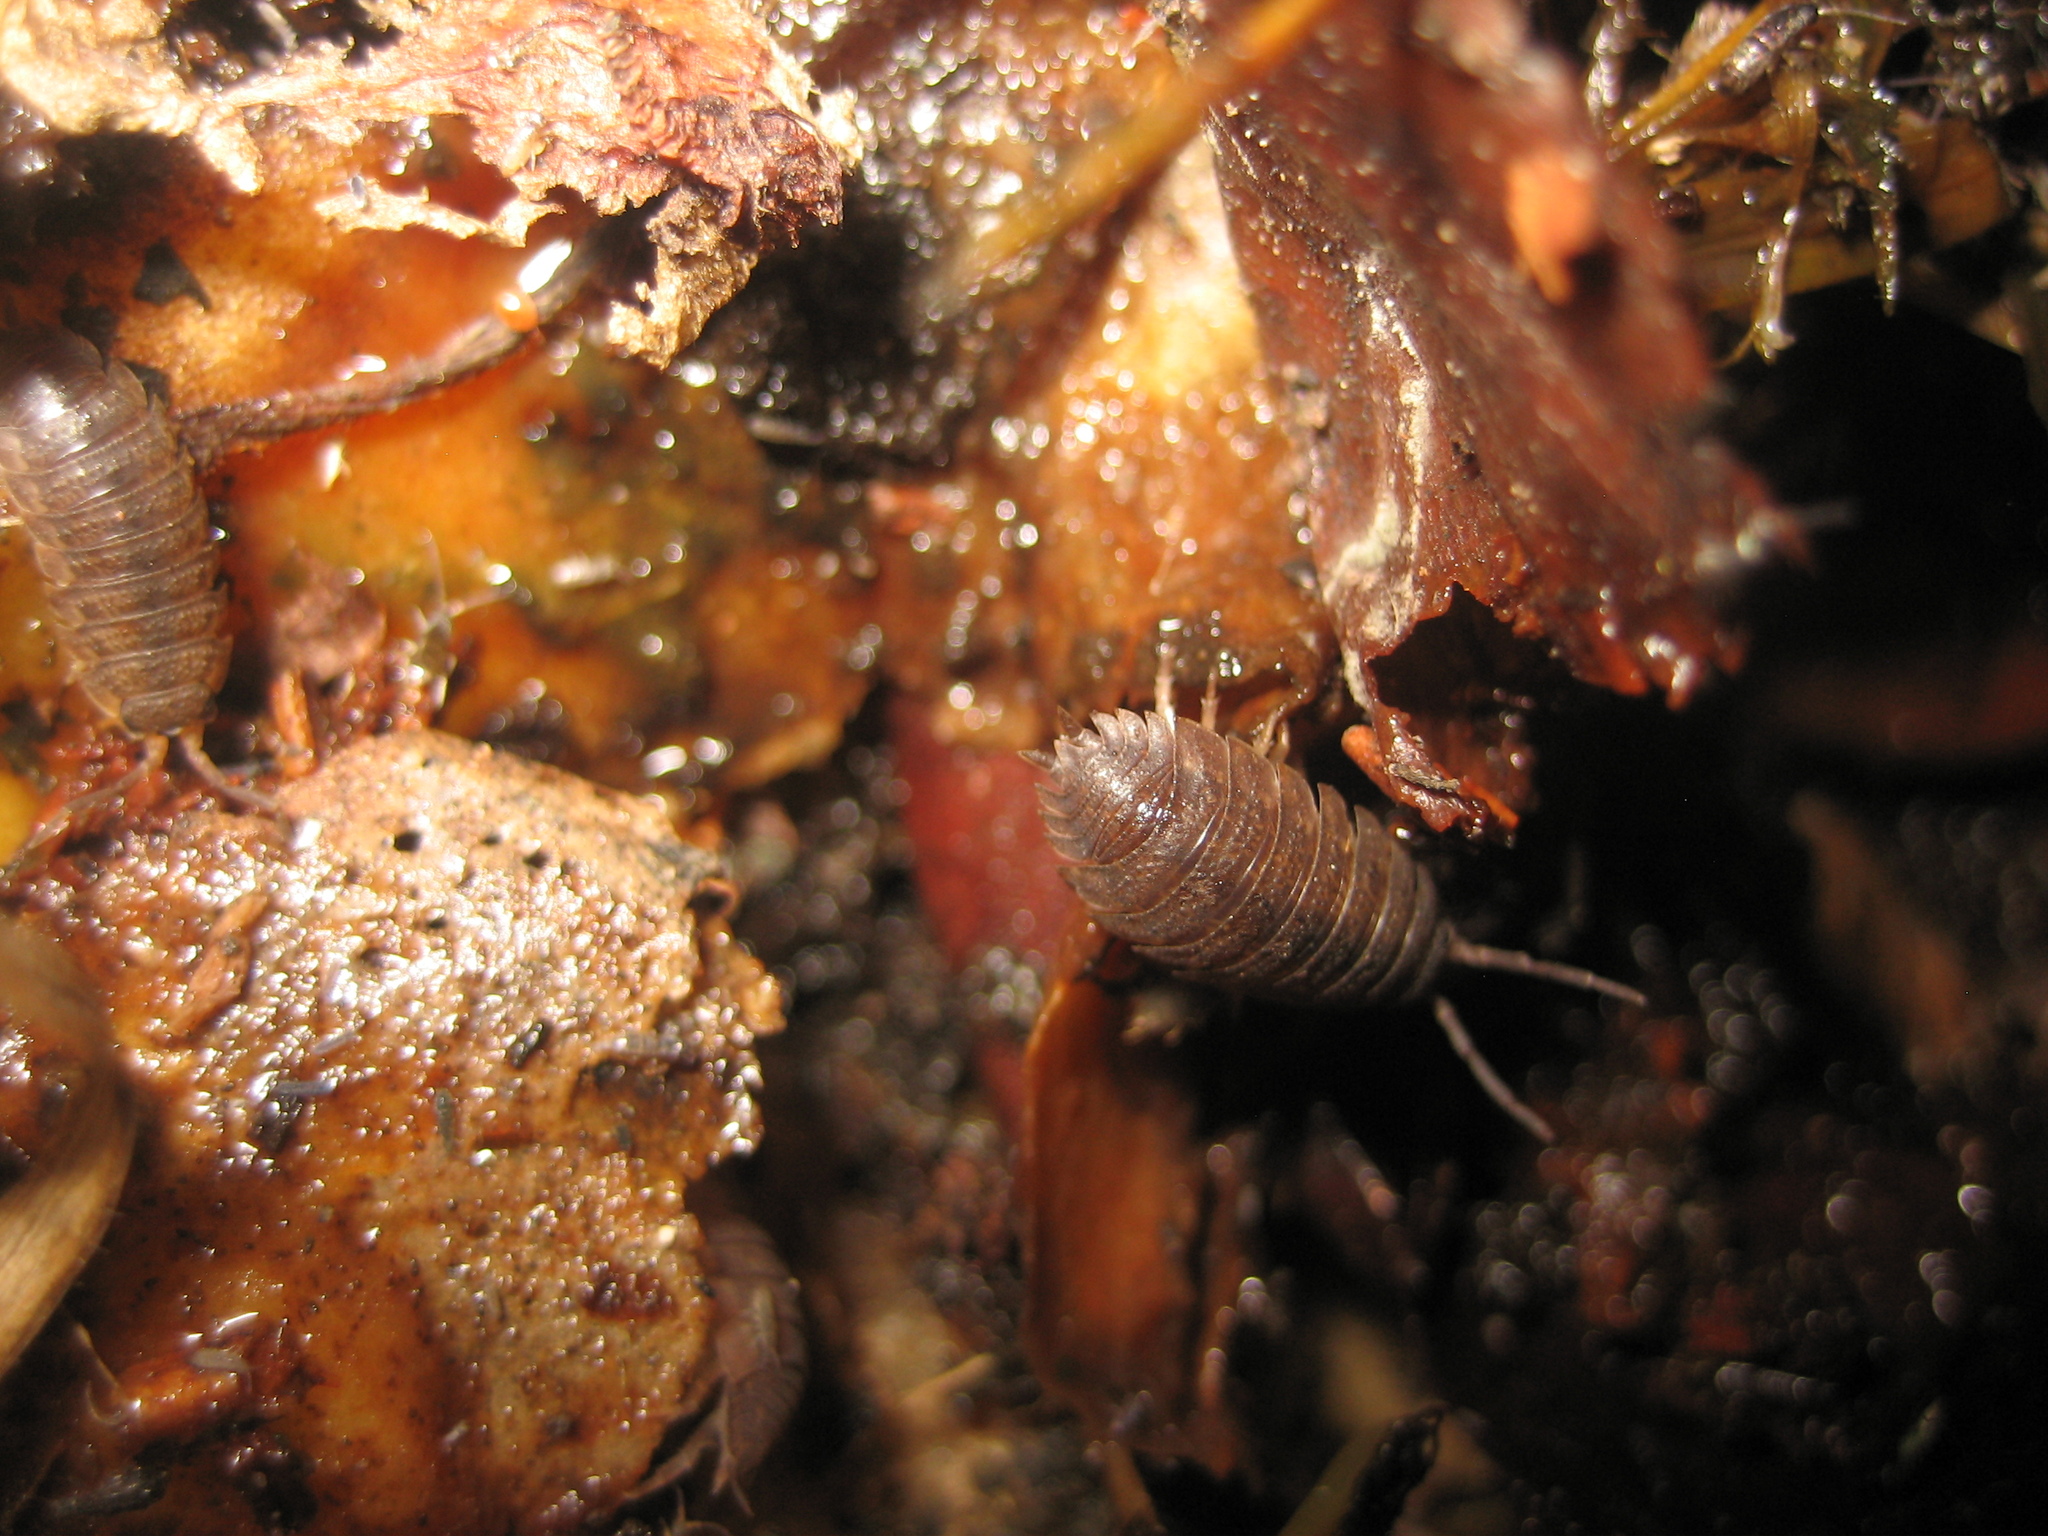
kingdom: Animalia
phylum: Arthropoda
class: Malacostraca
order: Isopoda
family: Porcellionidae
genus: Porcellio
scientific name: Porcellio scaber
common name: Common rough woodlouse
